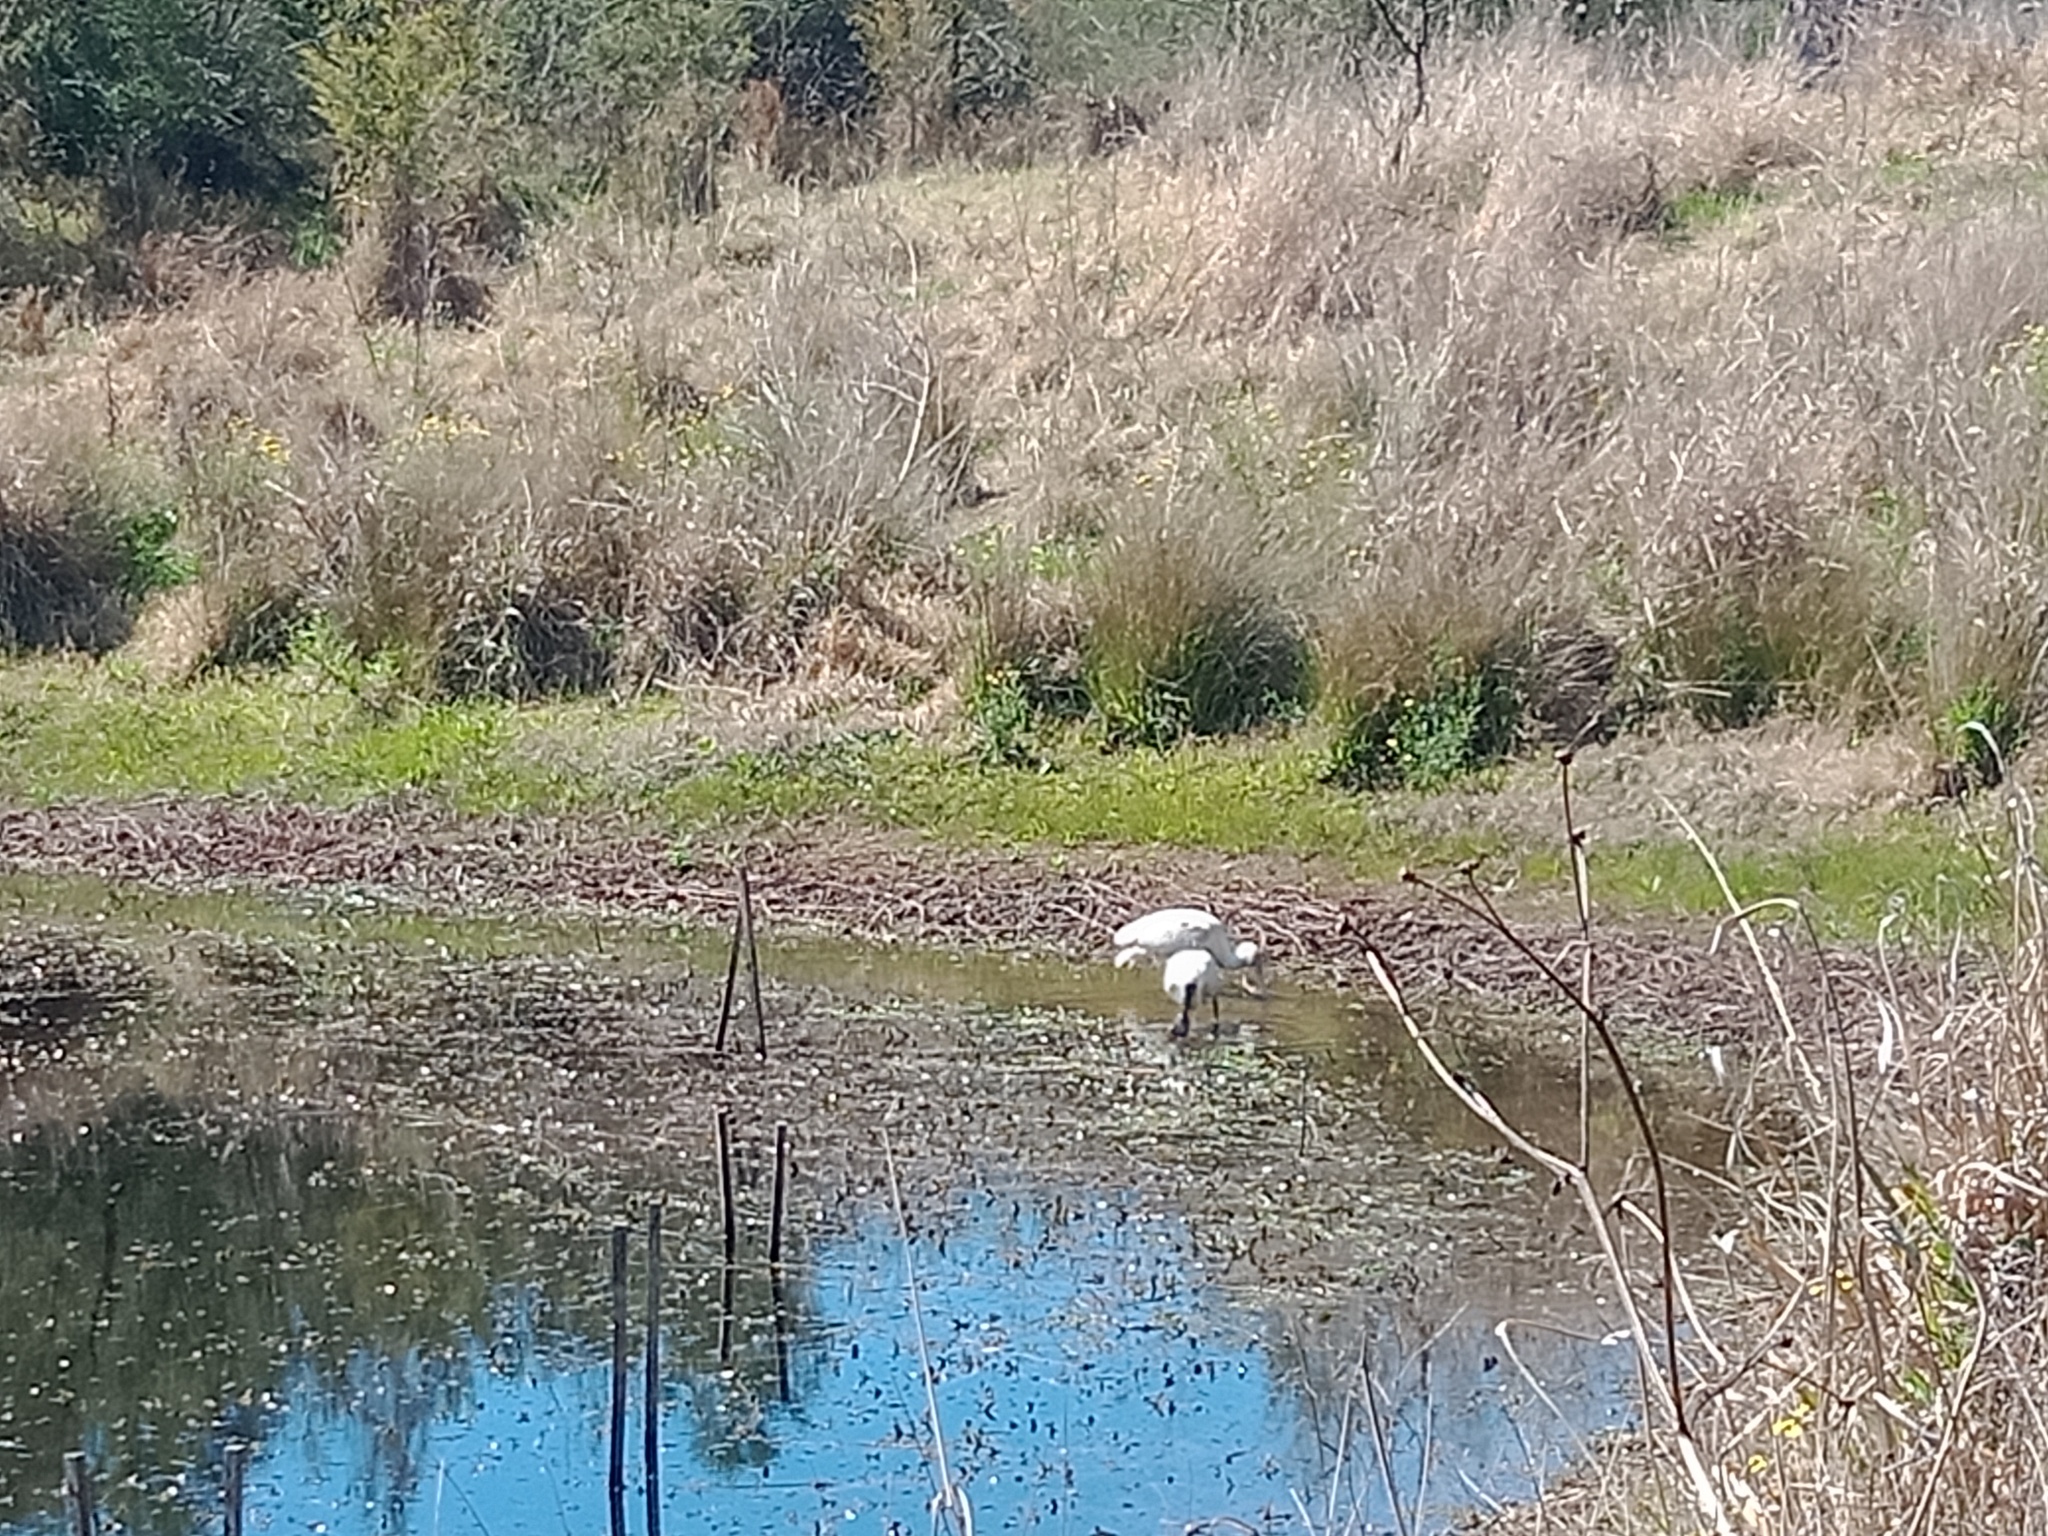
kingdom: Animalia
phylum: Chordata
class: Aves
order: Pelecaniformes
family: Threskiornithidae
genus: Platalea
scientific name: Platalea flavipes
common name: Yellow-billed spoonbill
